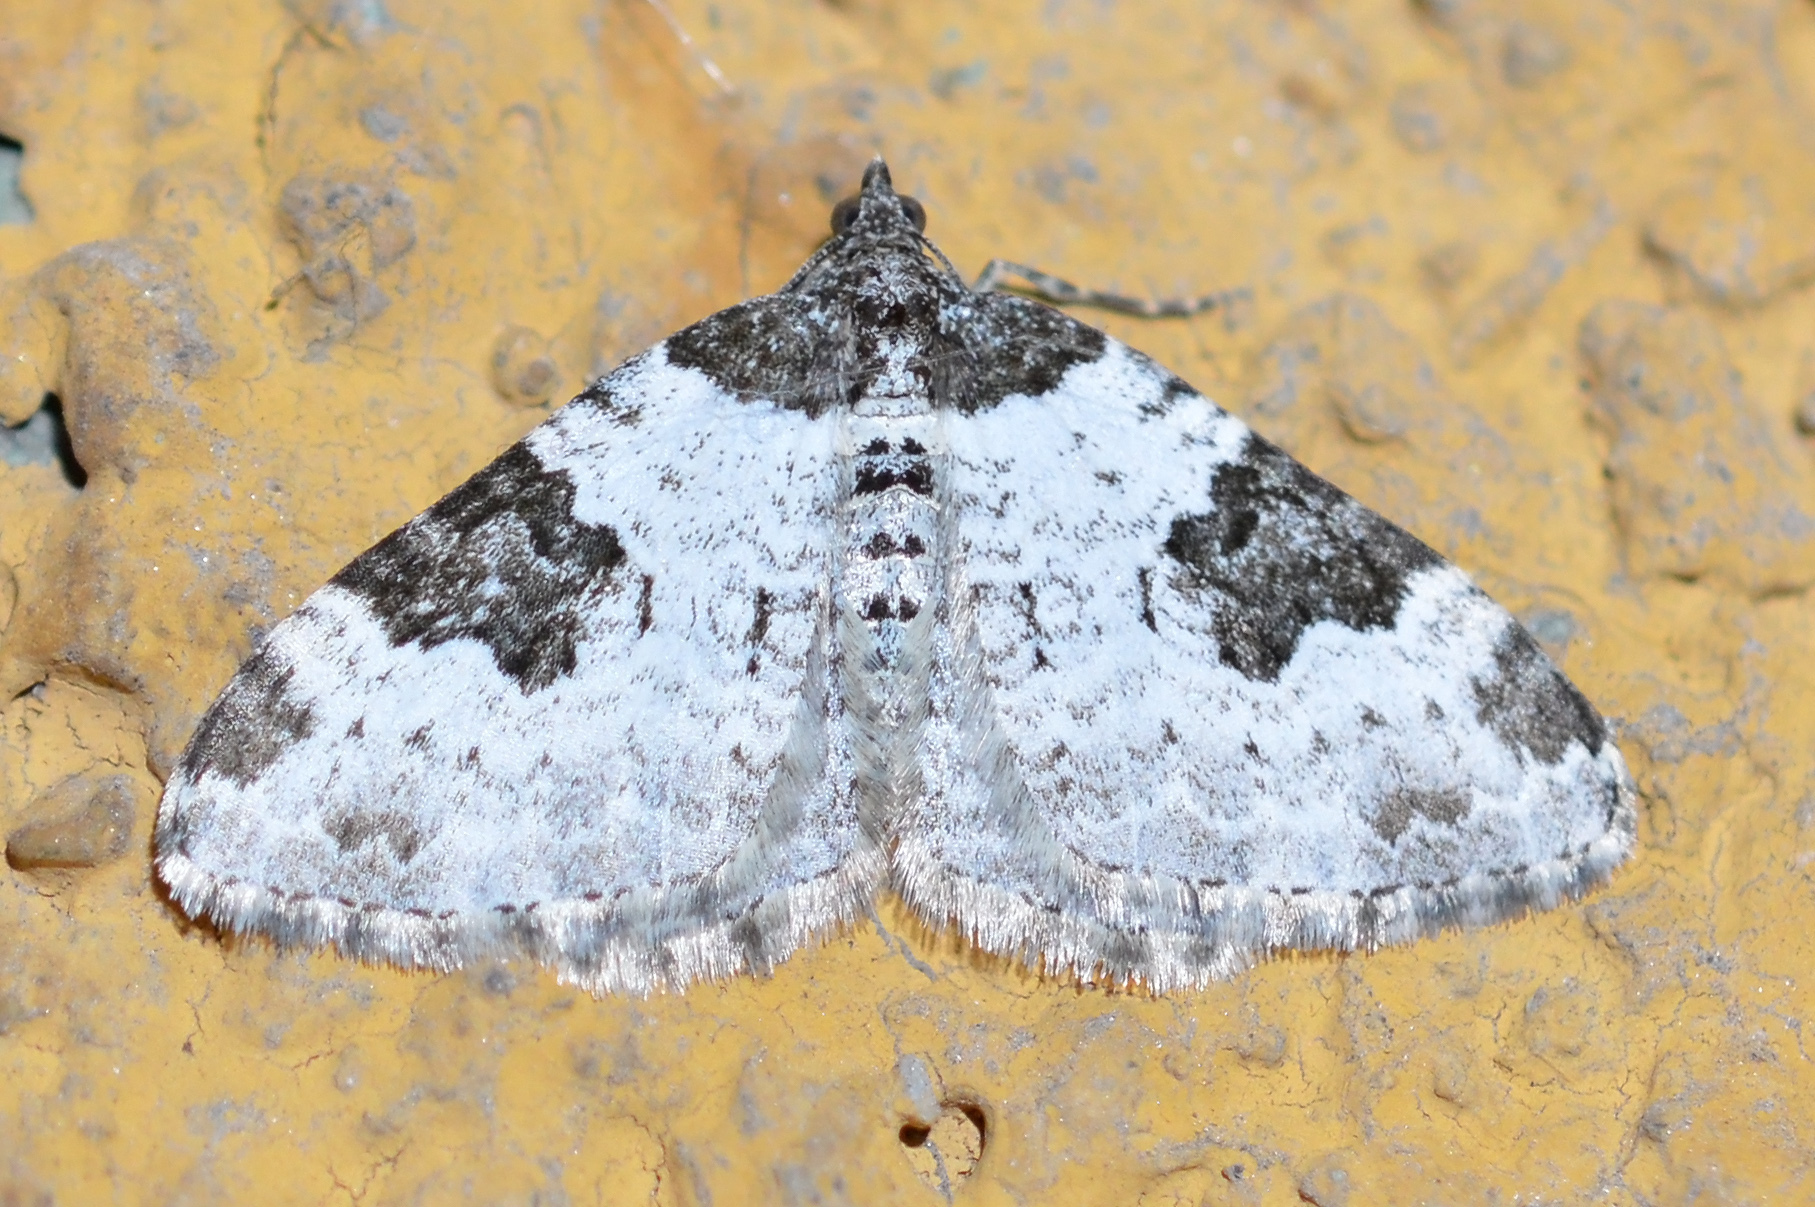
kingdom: Animalia
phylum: Arthropoda
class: Insecta
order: Lepidoptera
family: Geometridae
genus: Xanthorhoe
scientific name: Xanthorhoe fluctuata
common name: Garden carpet
